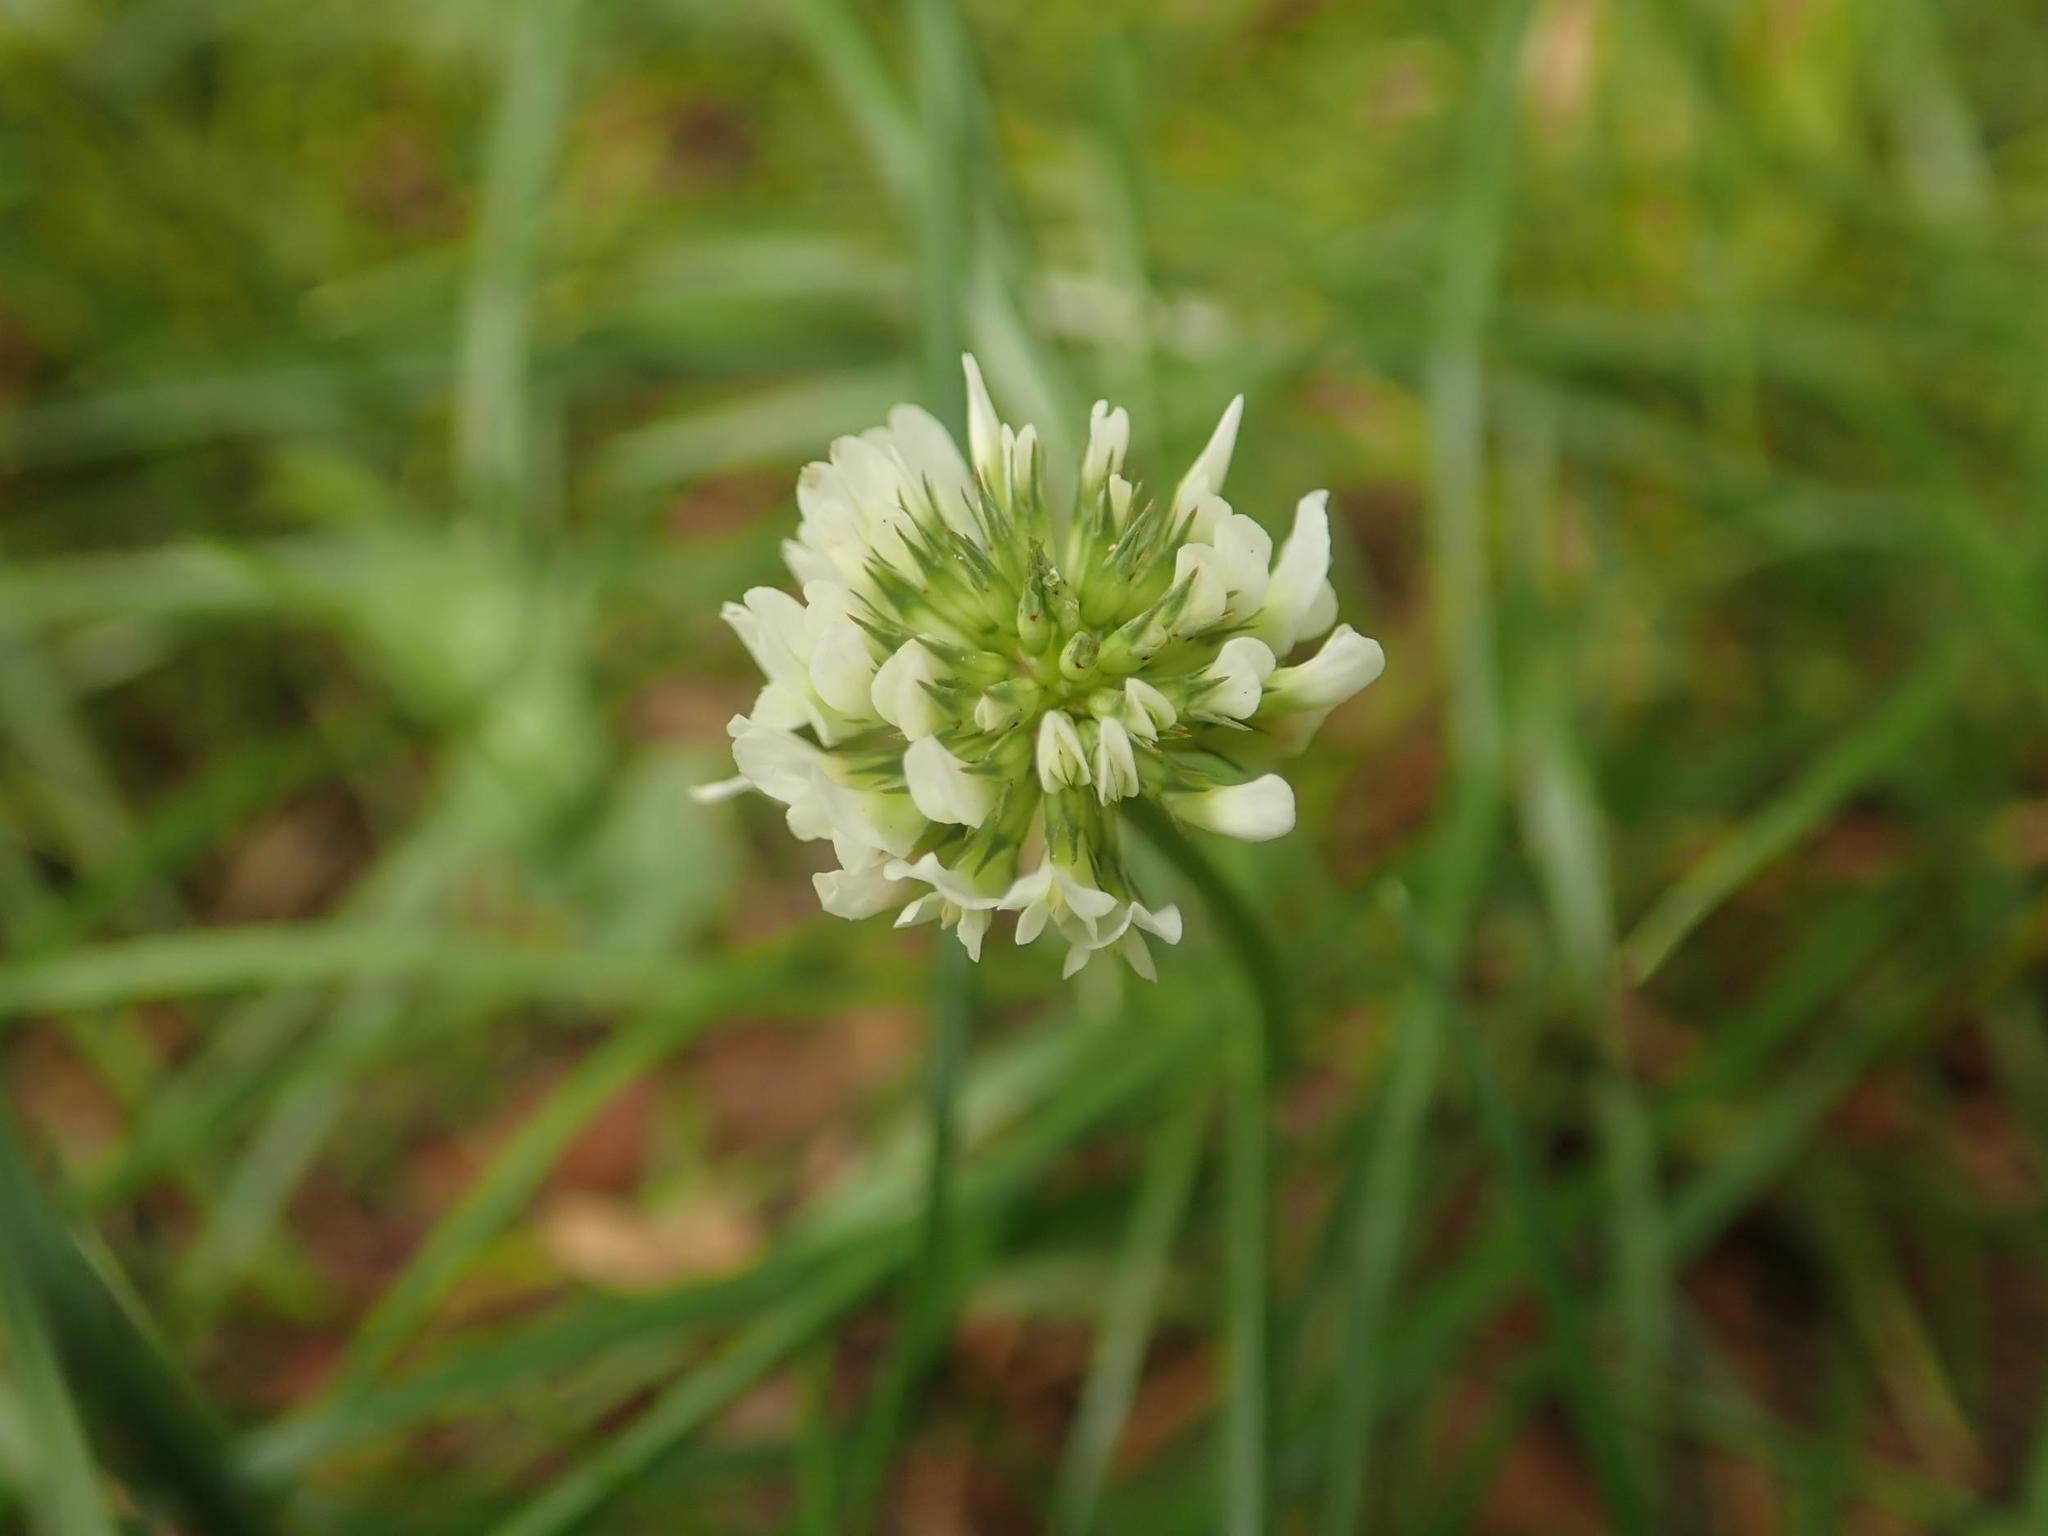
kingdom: Plantae
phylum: Tracheophyta
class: Magnoliopsida
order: Fabales
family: Fabaceae
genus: Trifolium
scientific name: Trifolium repens
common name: White clover
